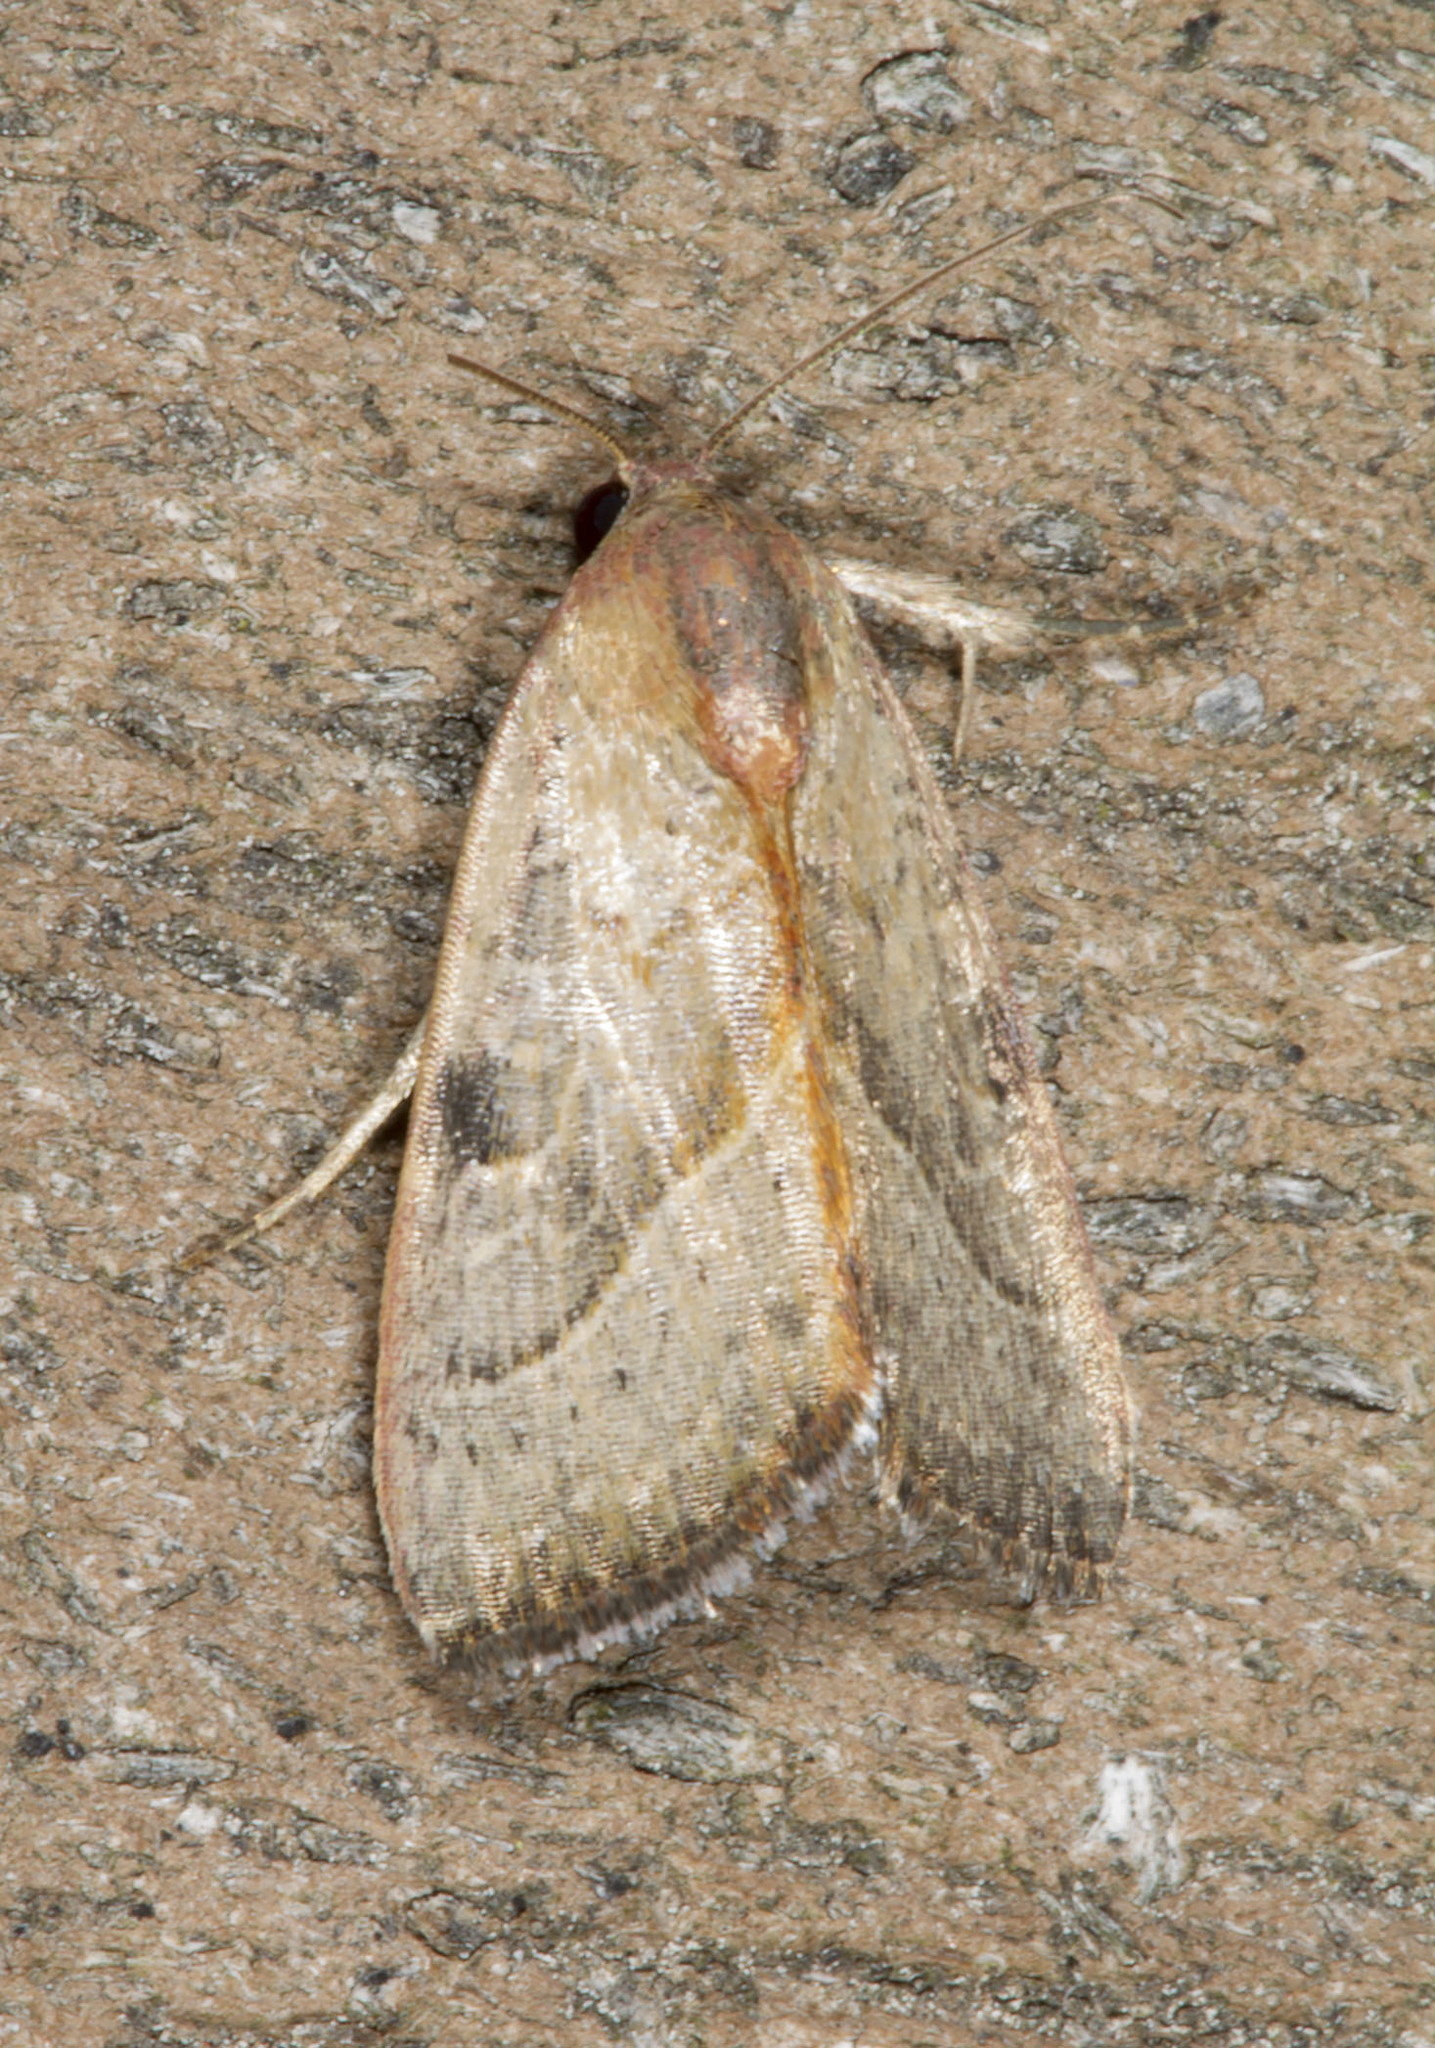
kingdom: Animalia
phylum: Arthropoda
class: Insecta
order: Lepidoptera
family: Noctuidae
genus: Galgula
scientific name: Galgula partita
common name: Wedgeling
